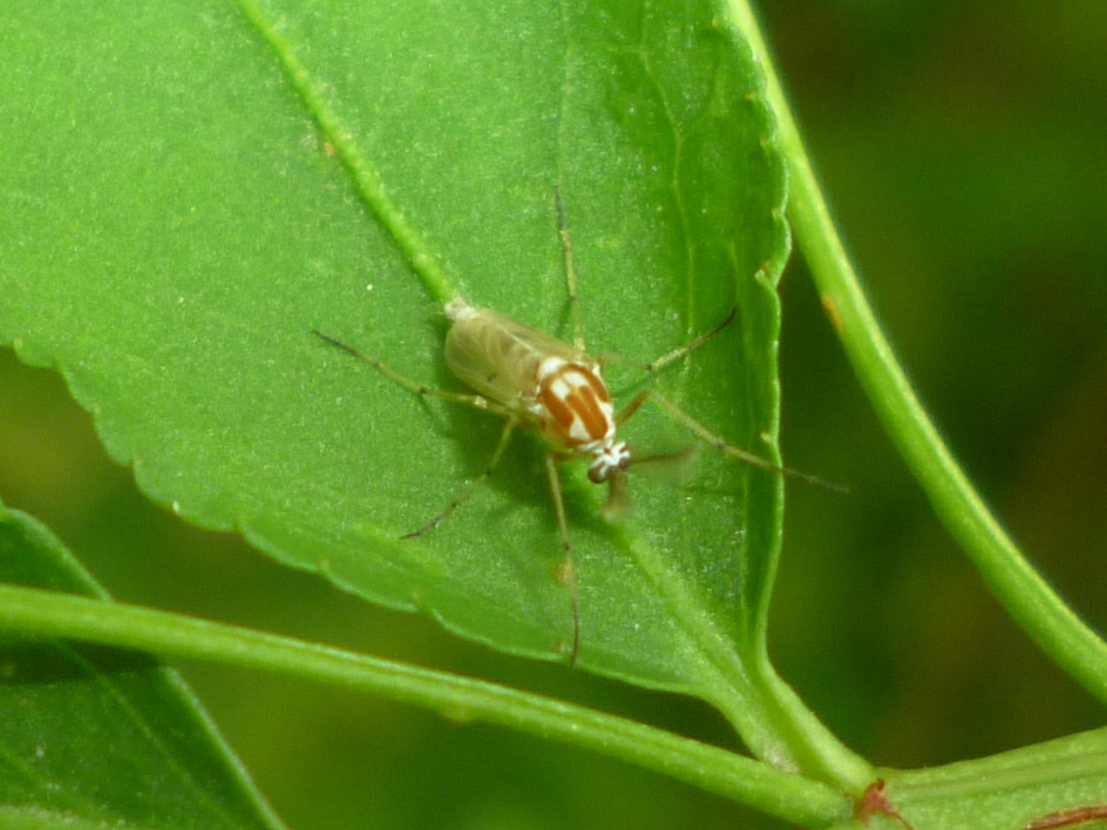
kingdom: Animalia
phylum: Arthropoda
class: Insecta
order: Diptera
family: Chironomidae
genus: Procladius
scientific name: Procladius bellus
